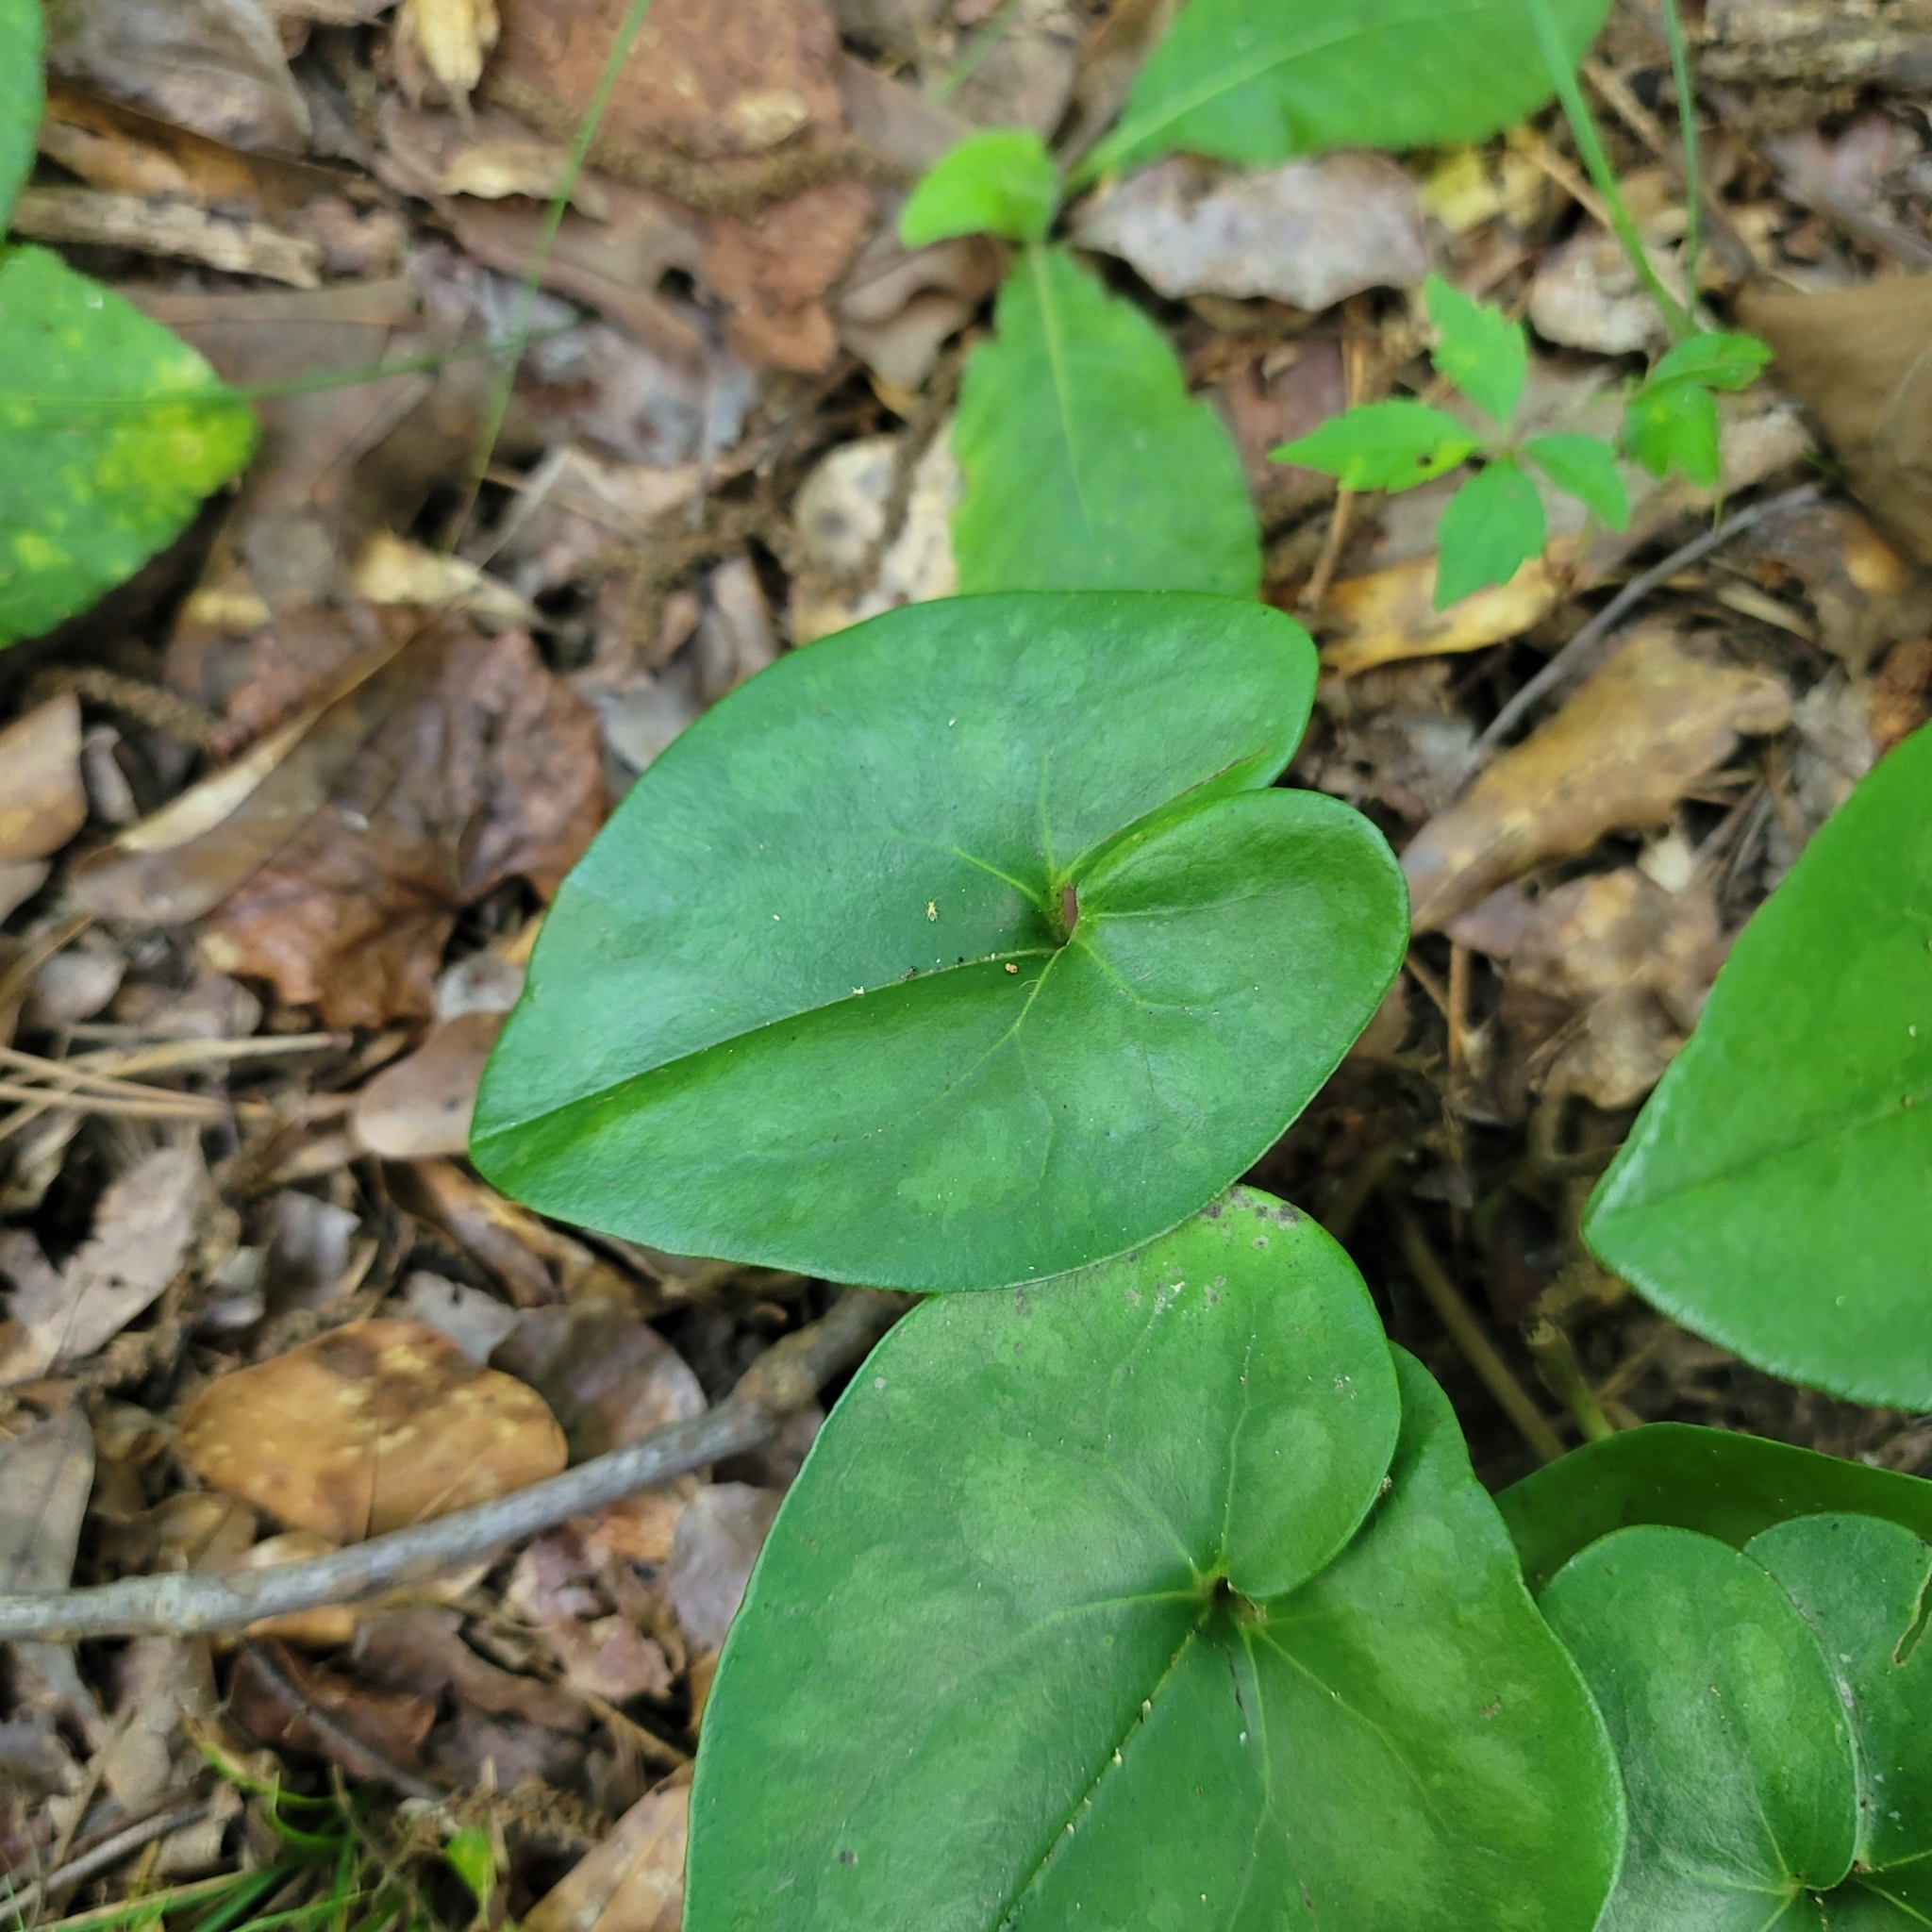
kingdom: Plantae
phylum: Tracheophyta
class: Magnoliopsida
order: Piperales
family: Aristolochiaceae
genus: Hexastylis
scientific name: Hexastylis arifolia
